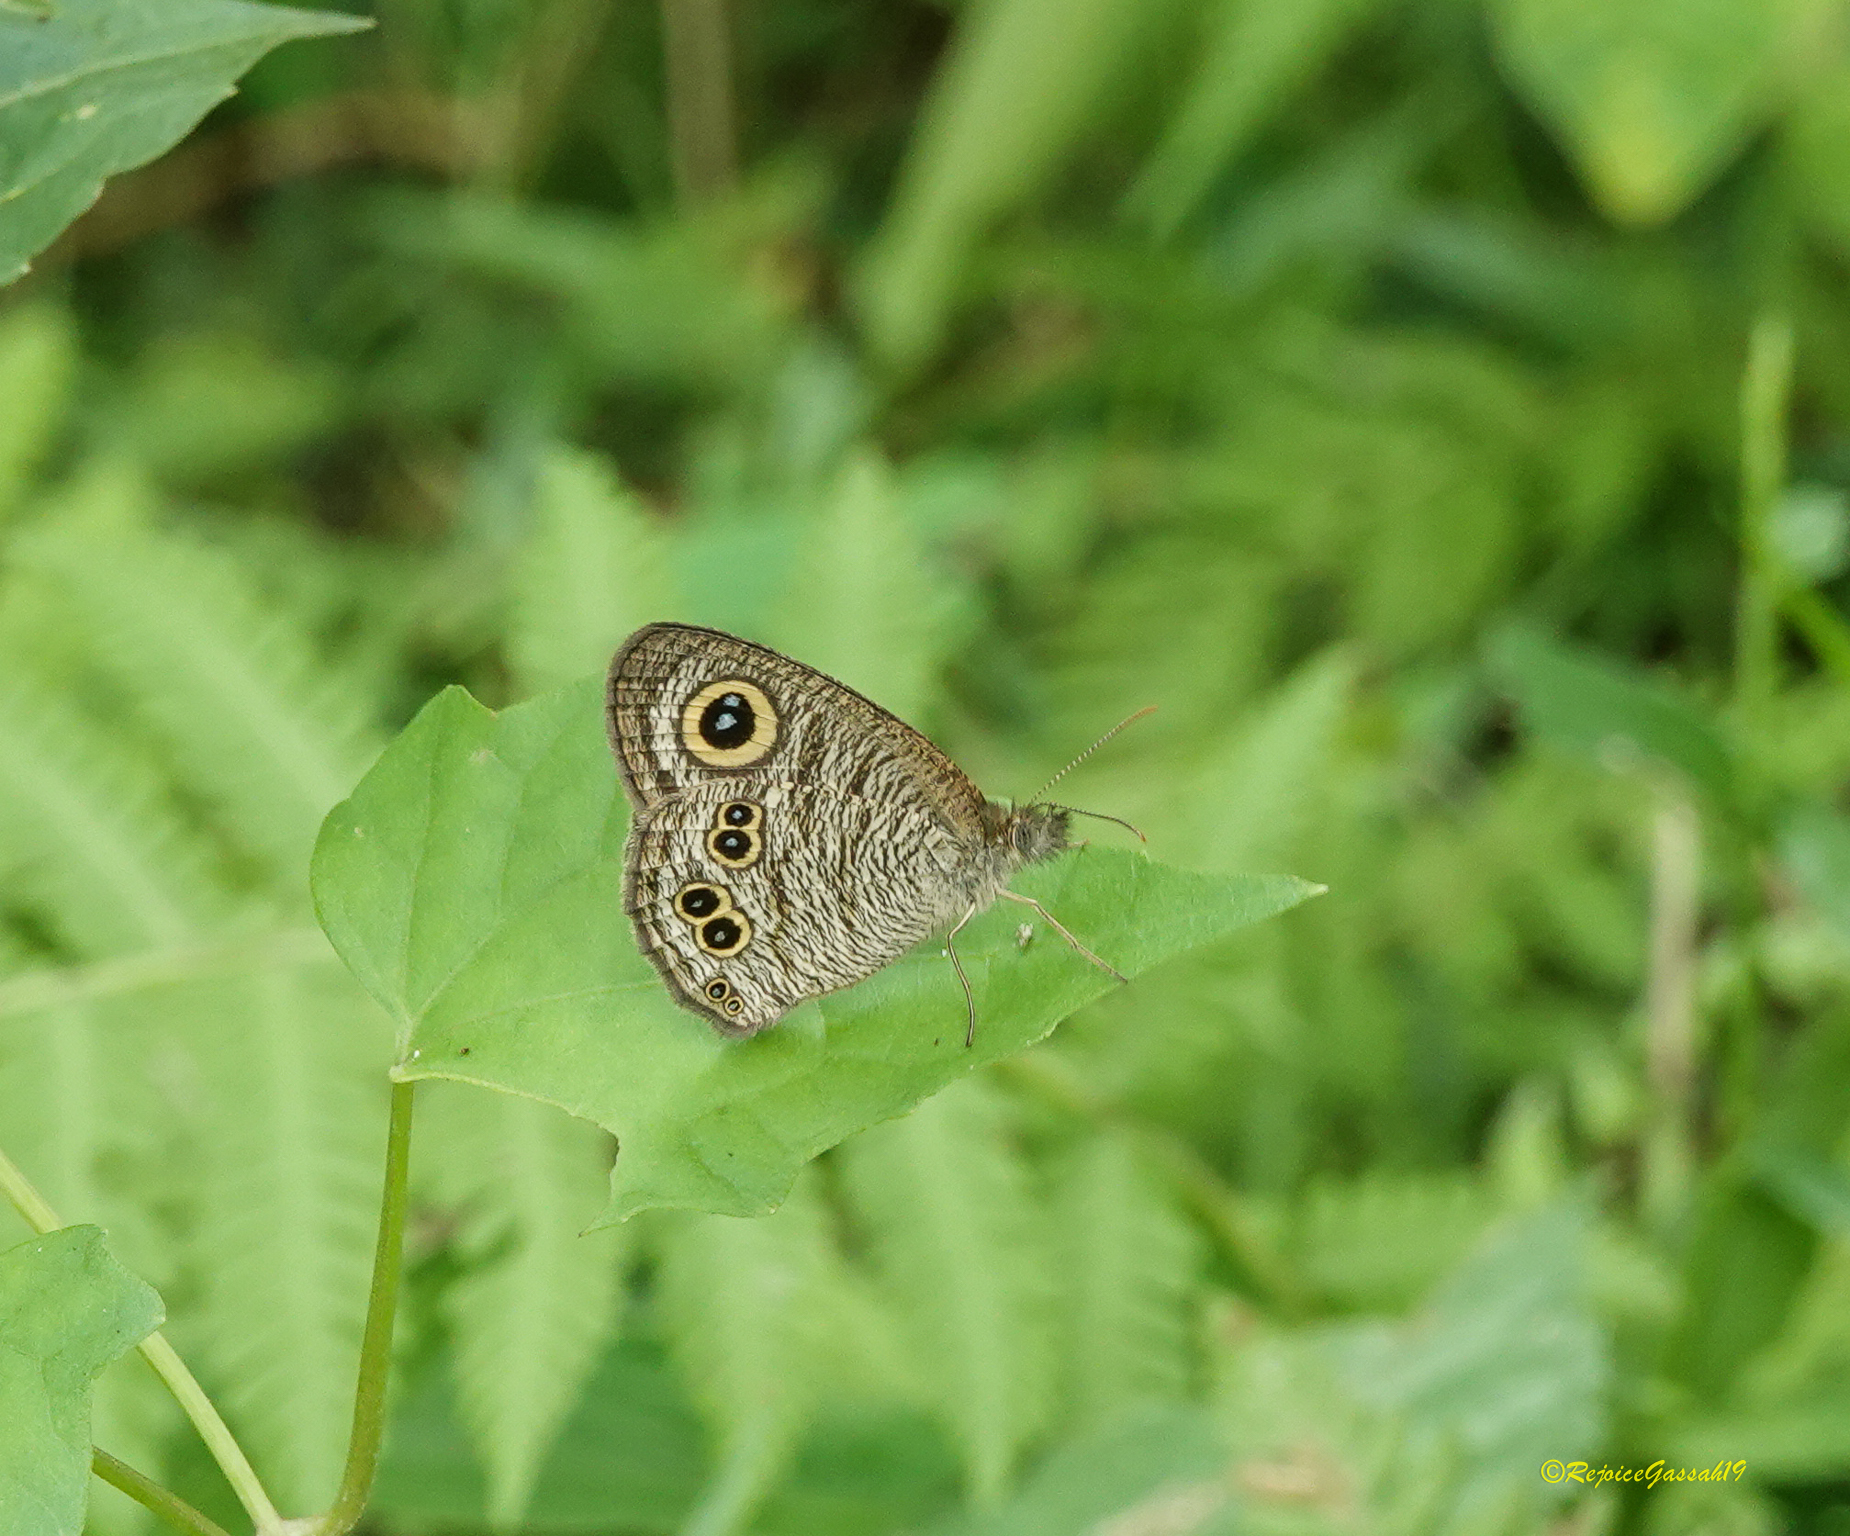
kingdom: Animalia
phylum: Arthropoda
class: Insecta
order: Lepidoptera
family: Nymphalidae
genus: Ypthima
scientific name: Ypthima baldus
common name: Common five-ring
